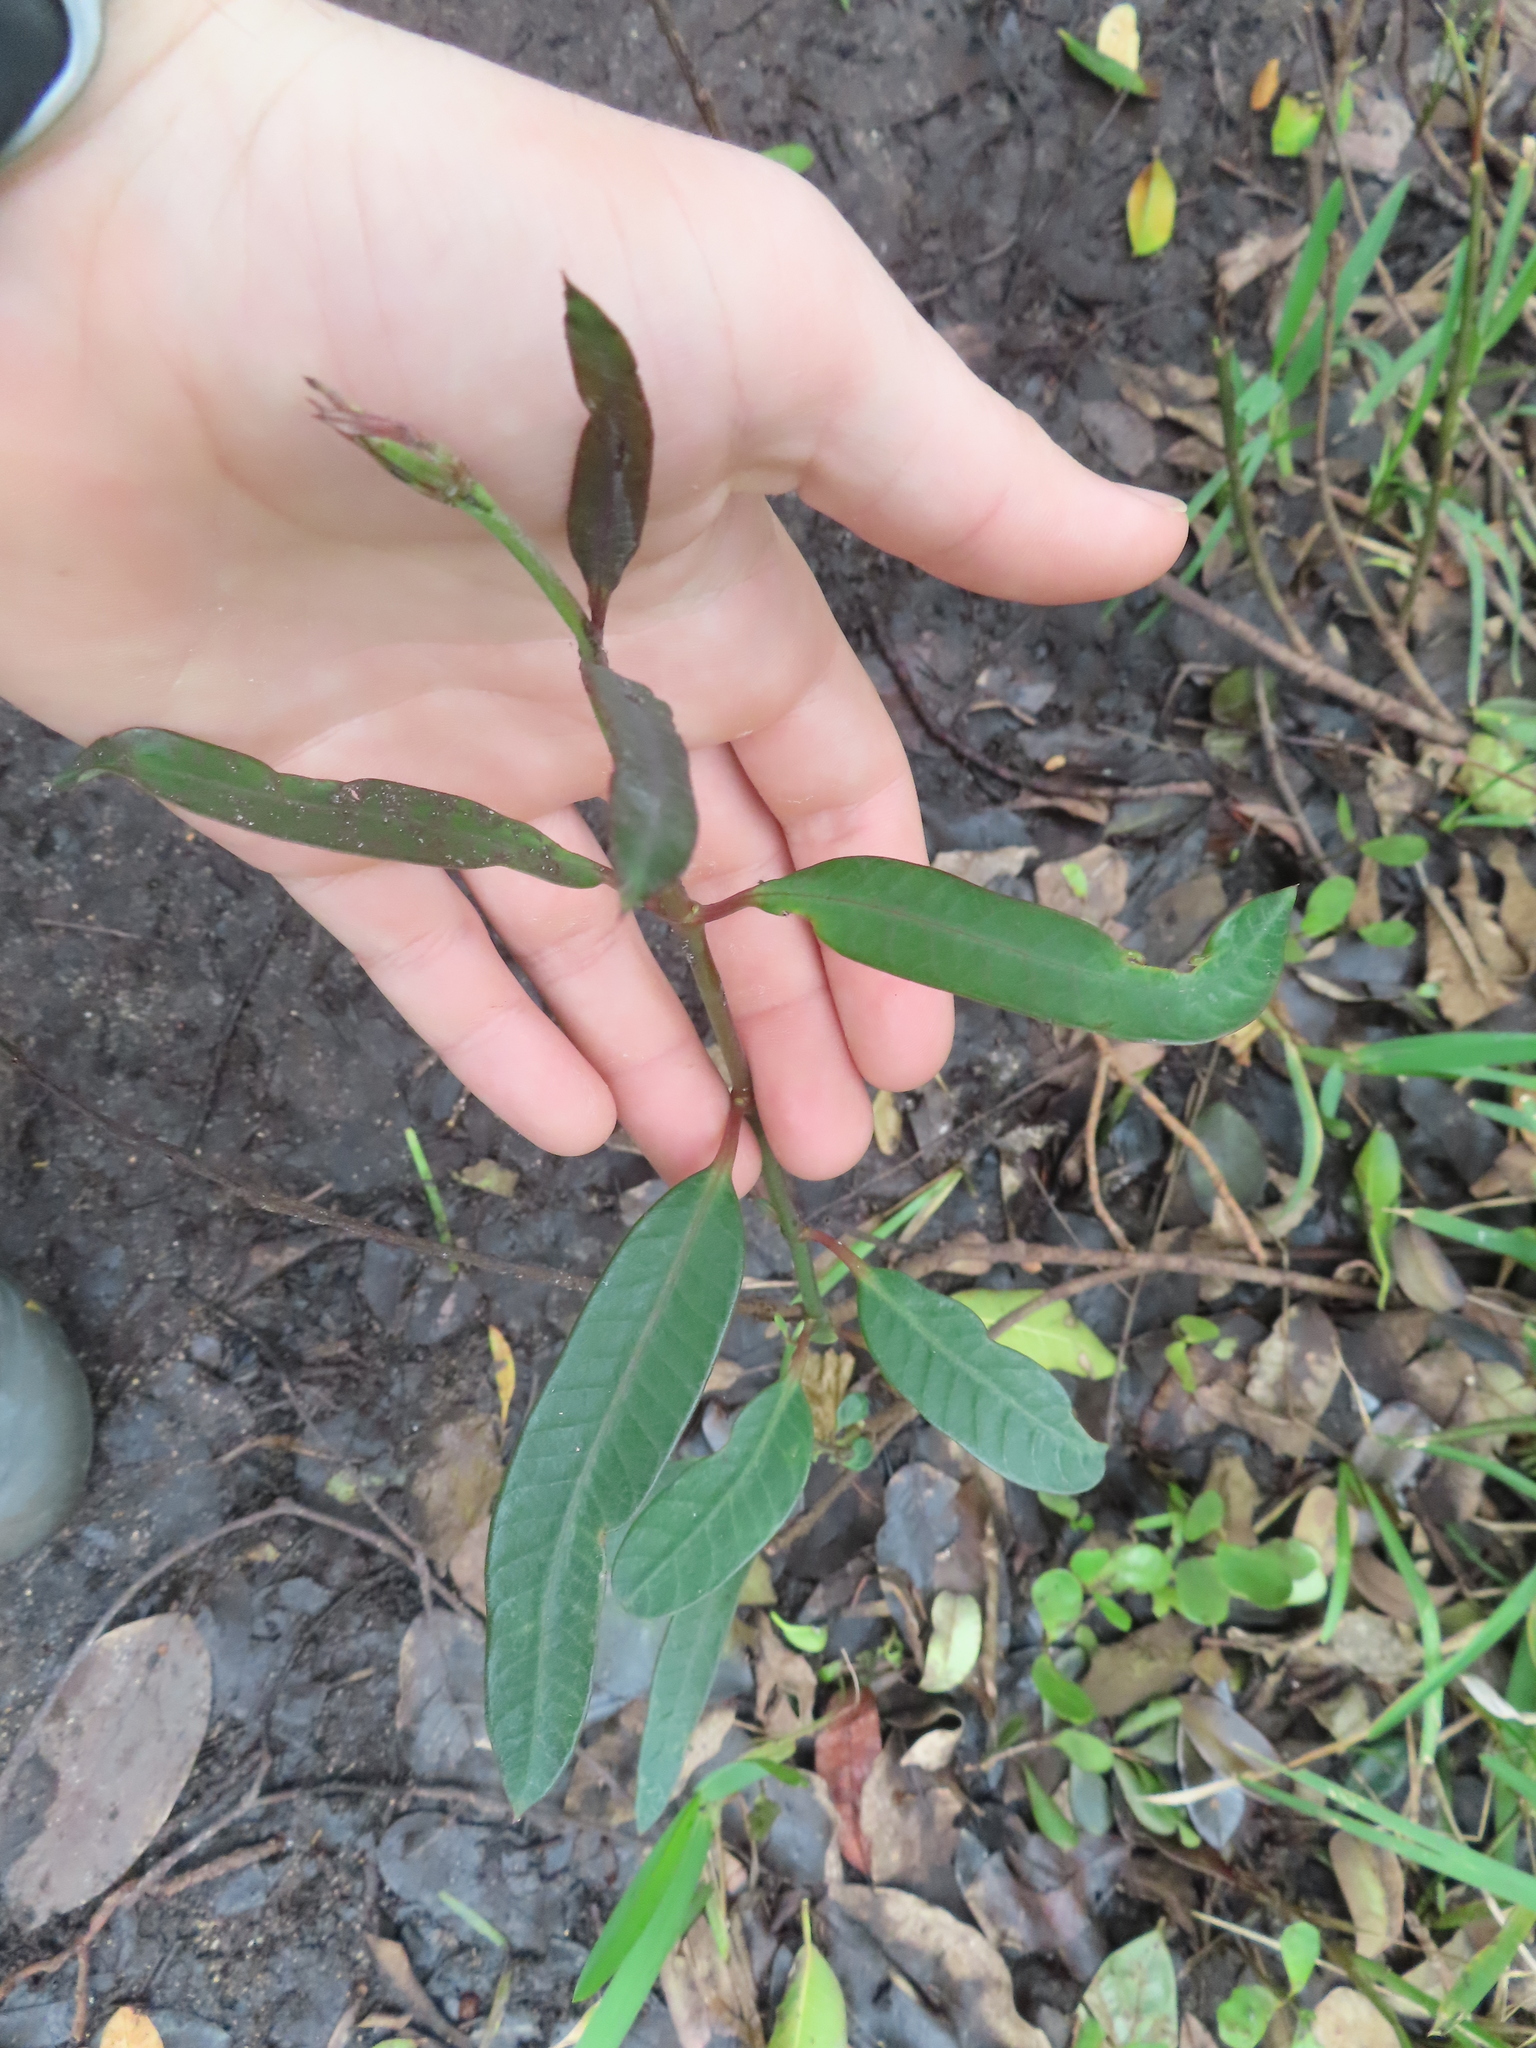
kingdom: Plantae
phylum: Tracheophyta
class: Magnoliopsida
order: Gentianales
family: Apocynaceae
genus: Rhabdadenia
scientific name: Rhabdadenia biflora
